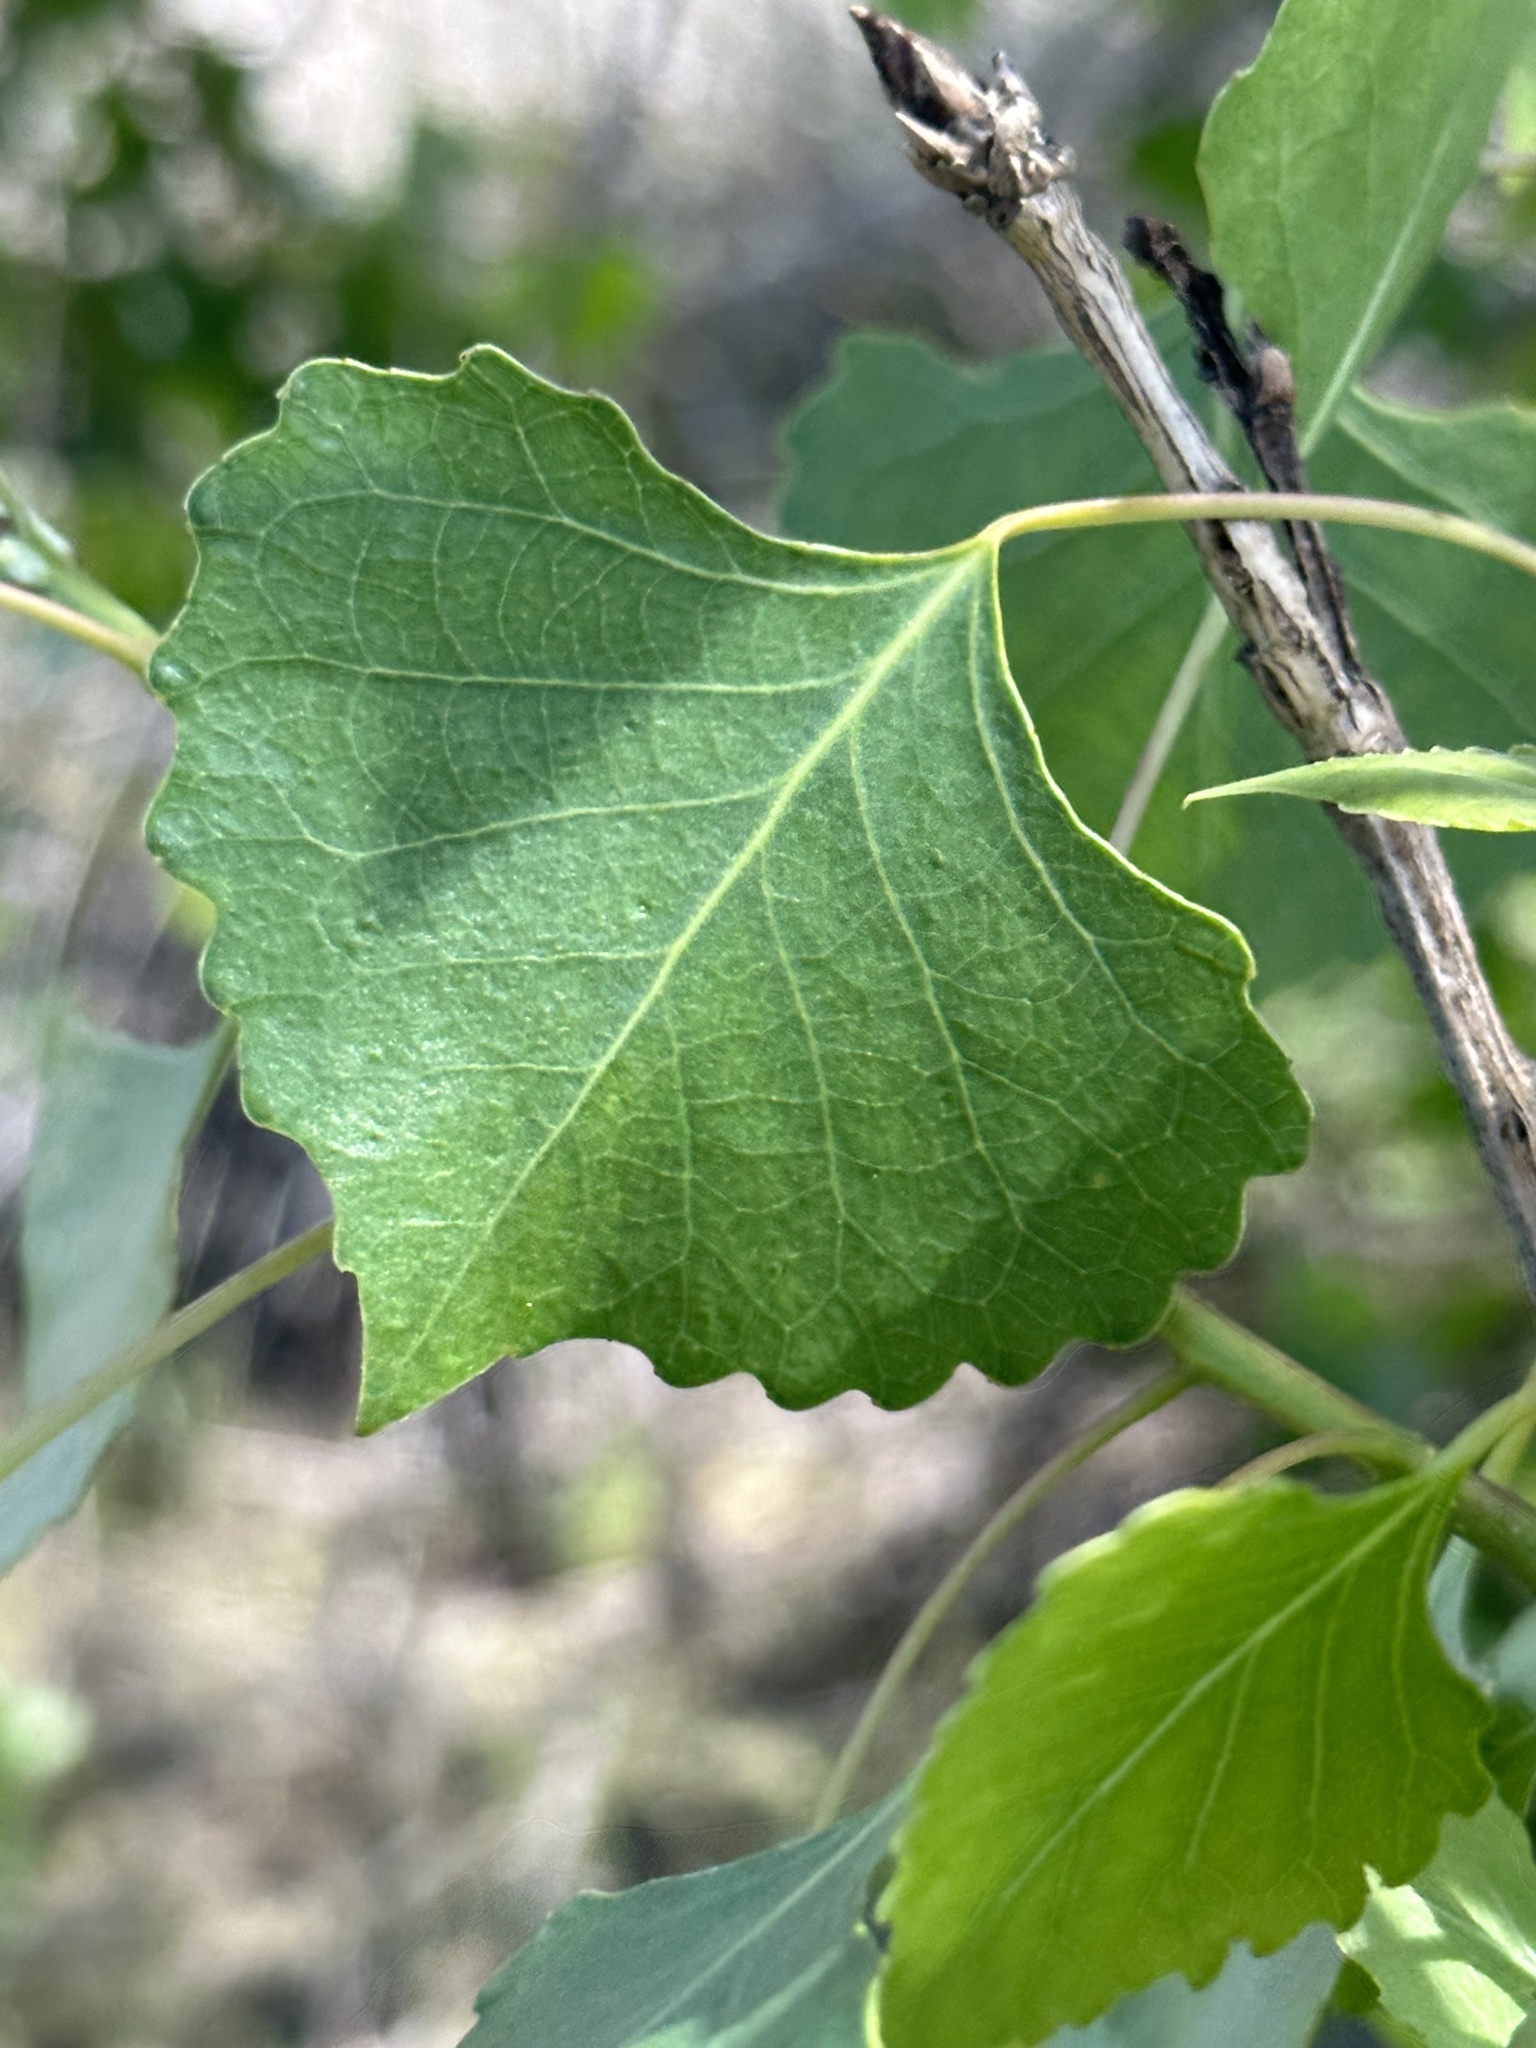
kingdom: Plantae
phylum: Tracheophyta
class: Magnoliopsida
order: Malpighiales
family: Salicaceae
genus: Populus
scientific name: Populus fremontii
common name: Fremont's cottonwood
